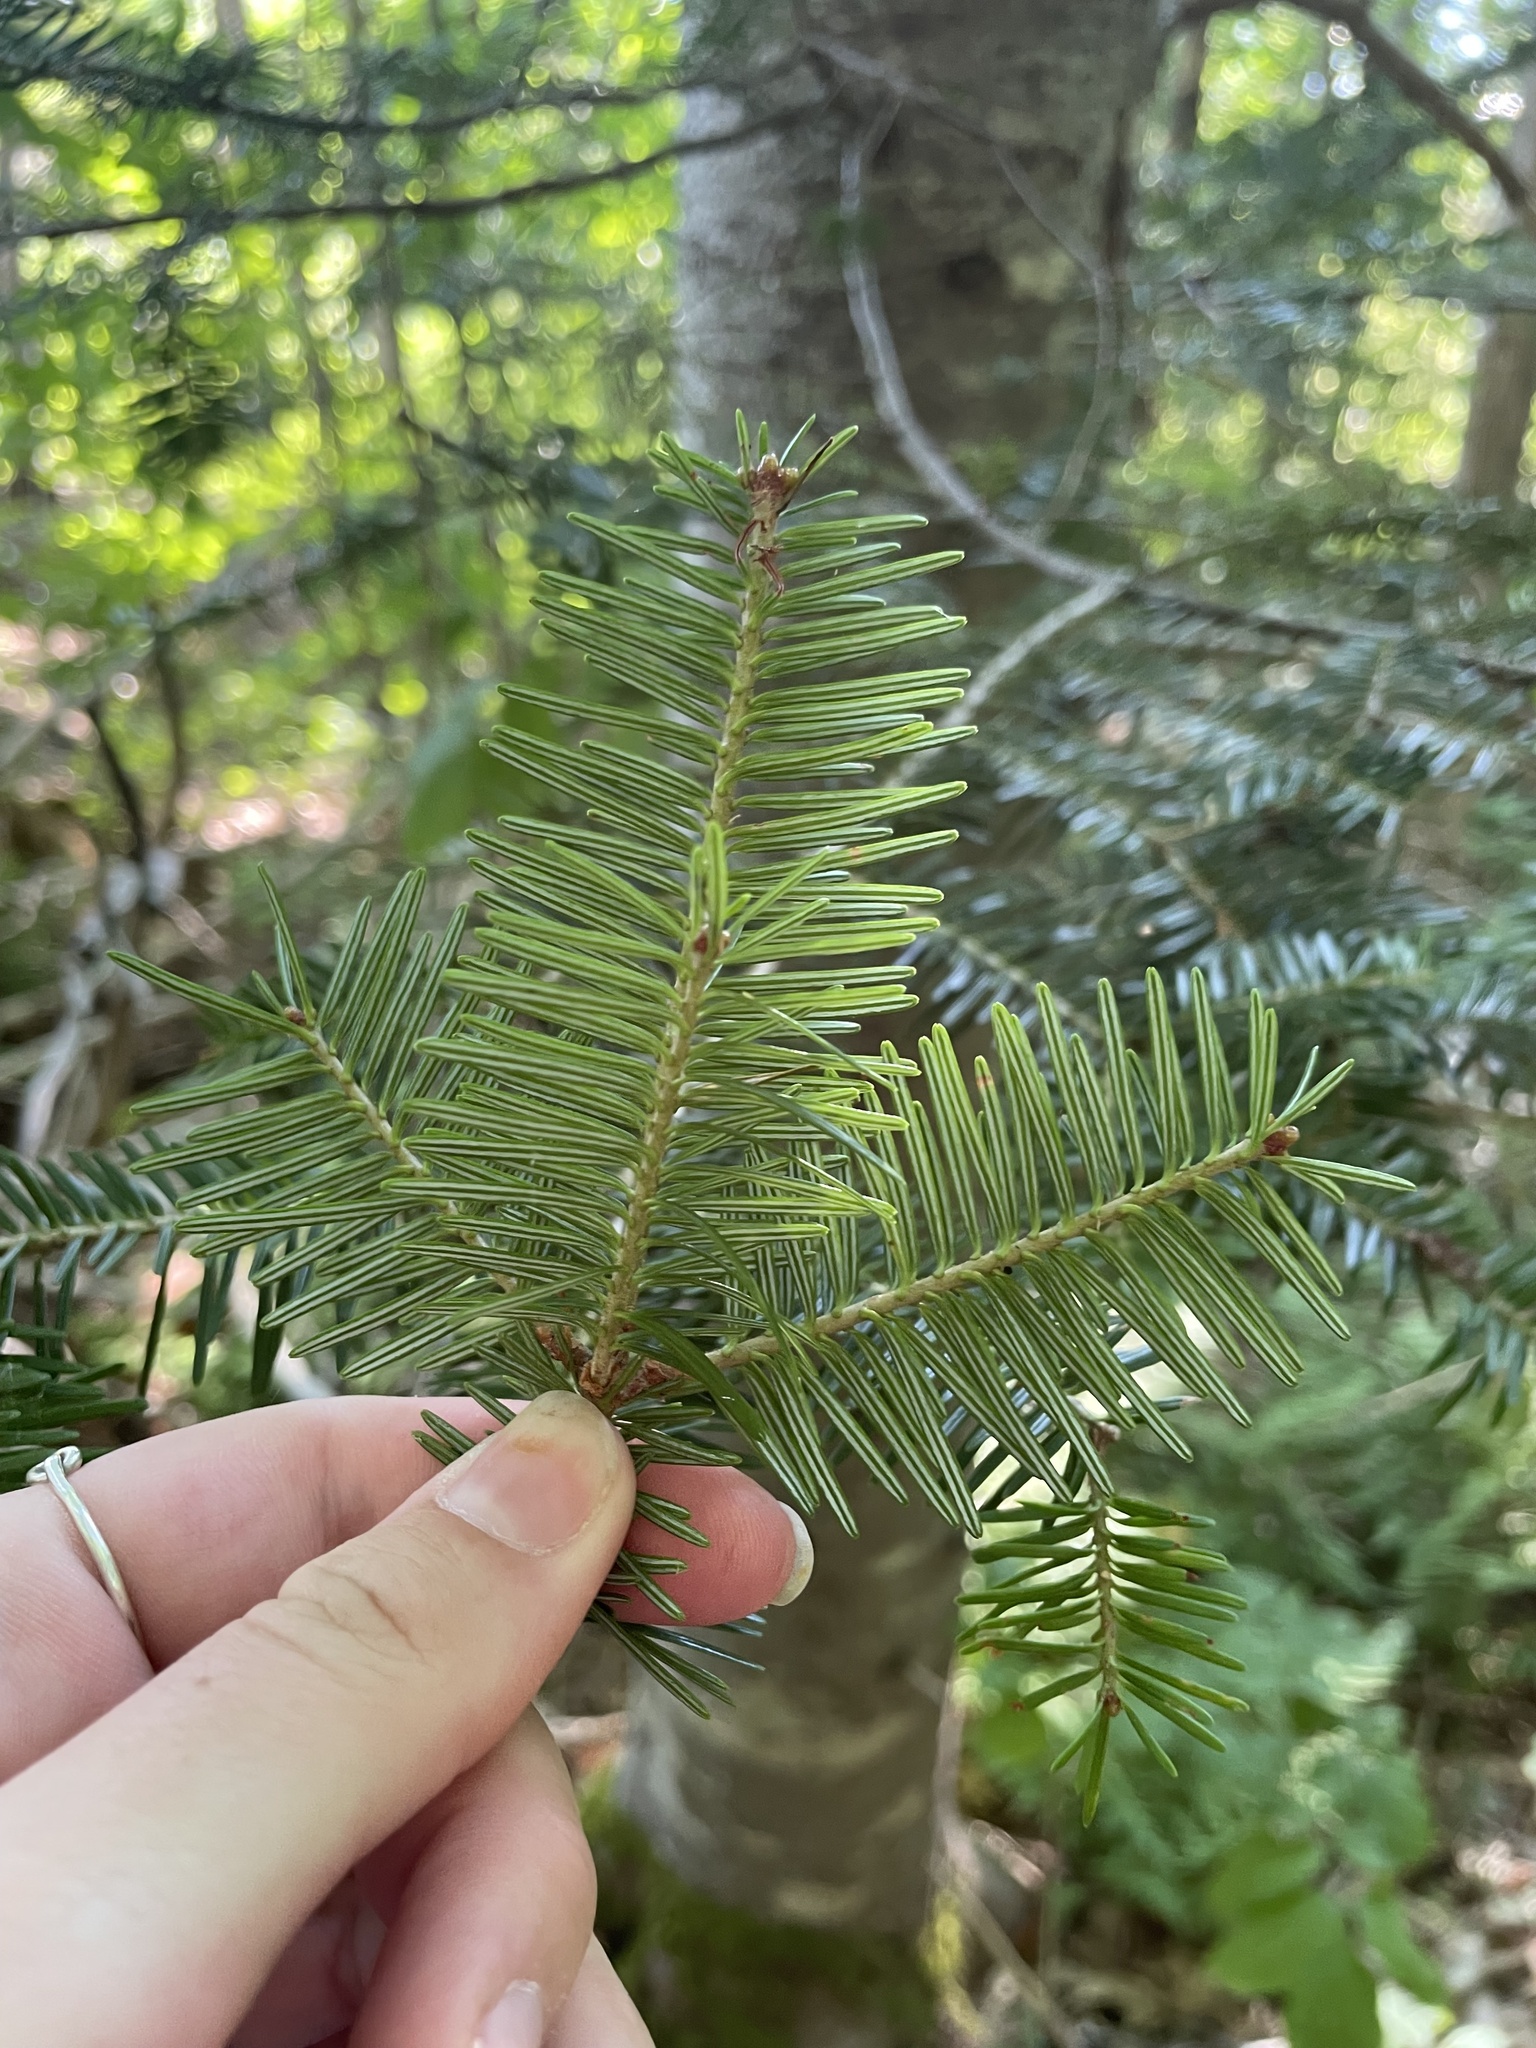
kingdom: Plantae
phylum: Tracheophyta
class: Pinopsida
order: Pinales
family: Pinaceae
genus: Abies
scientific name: Abies balsamea
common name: Balsam fir
